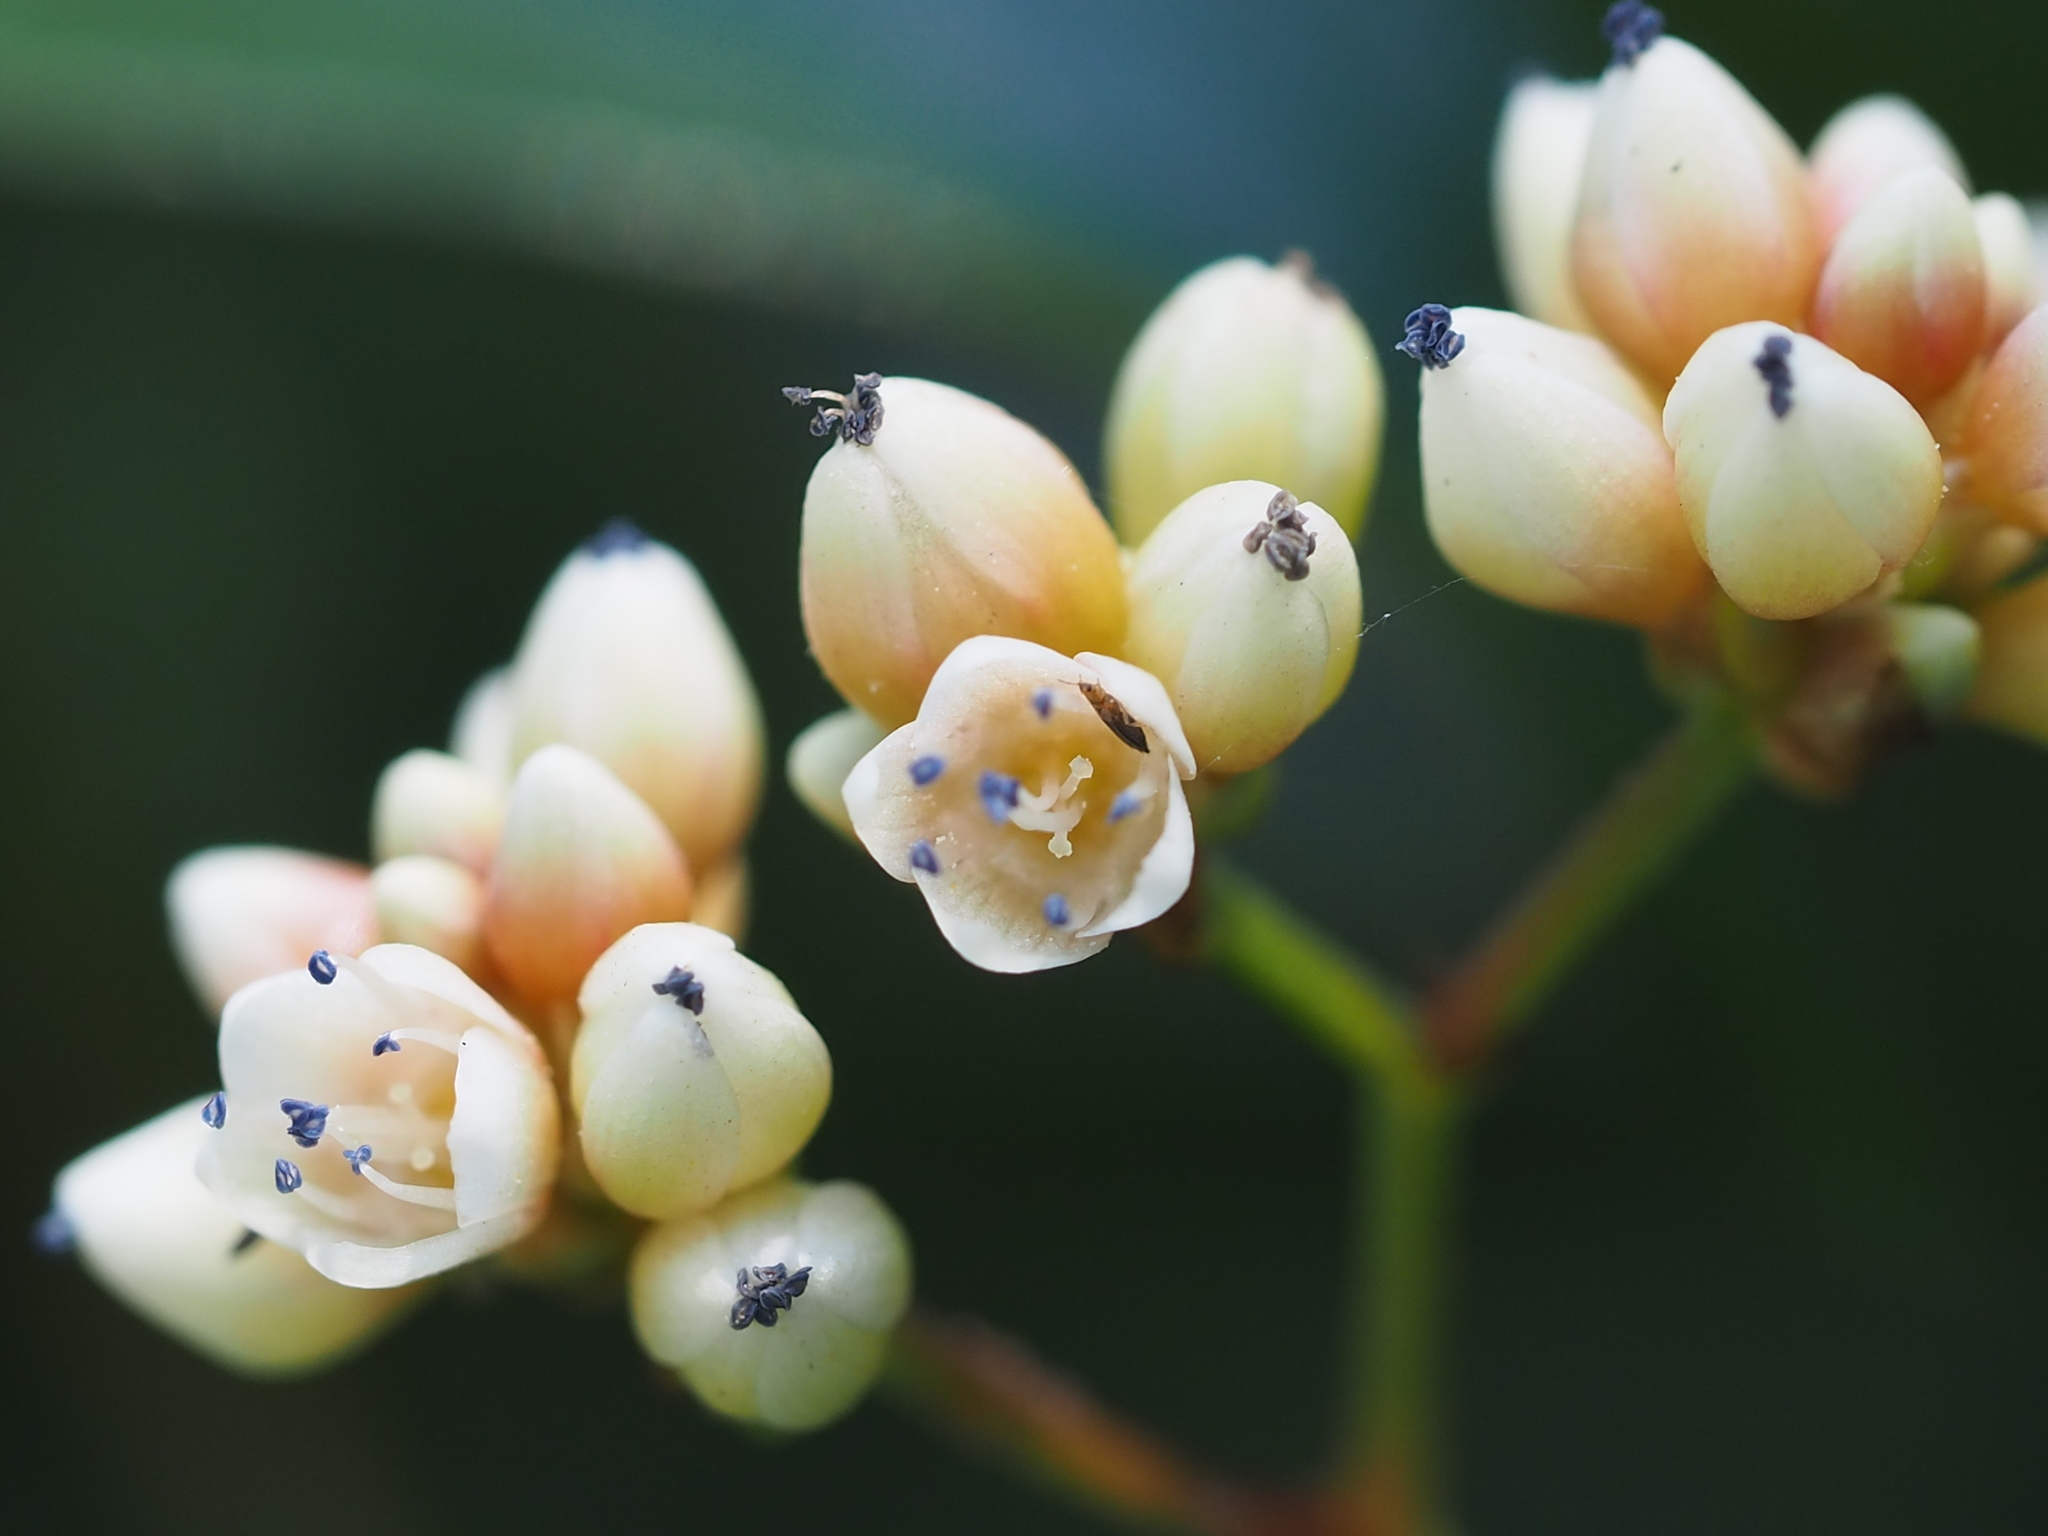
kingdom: Plantae
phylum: Tracheophyta
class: Magnoliopsida
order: Caryophyllales
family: Polygonaceae
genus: Persicaria
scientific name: Persicaria chinensis
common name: Chinese knotweed
